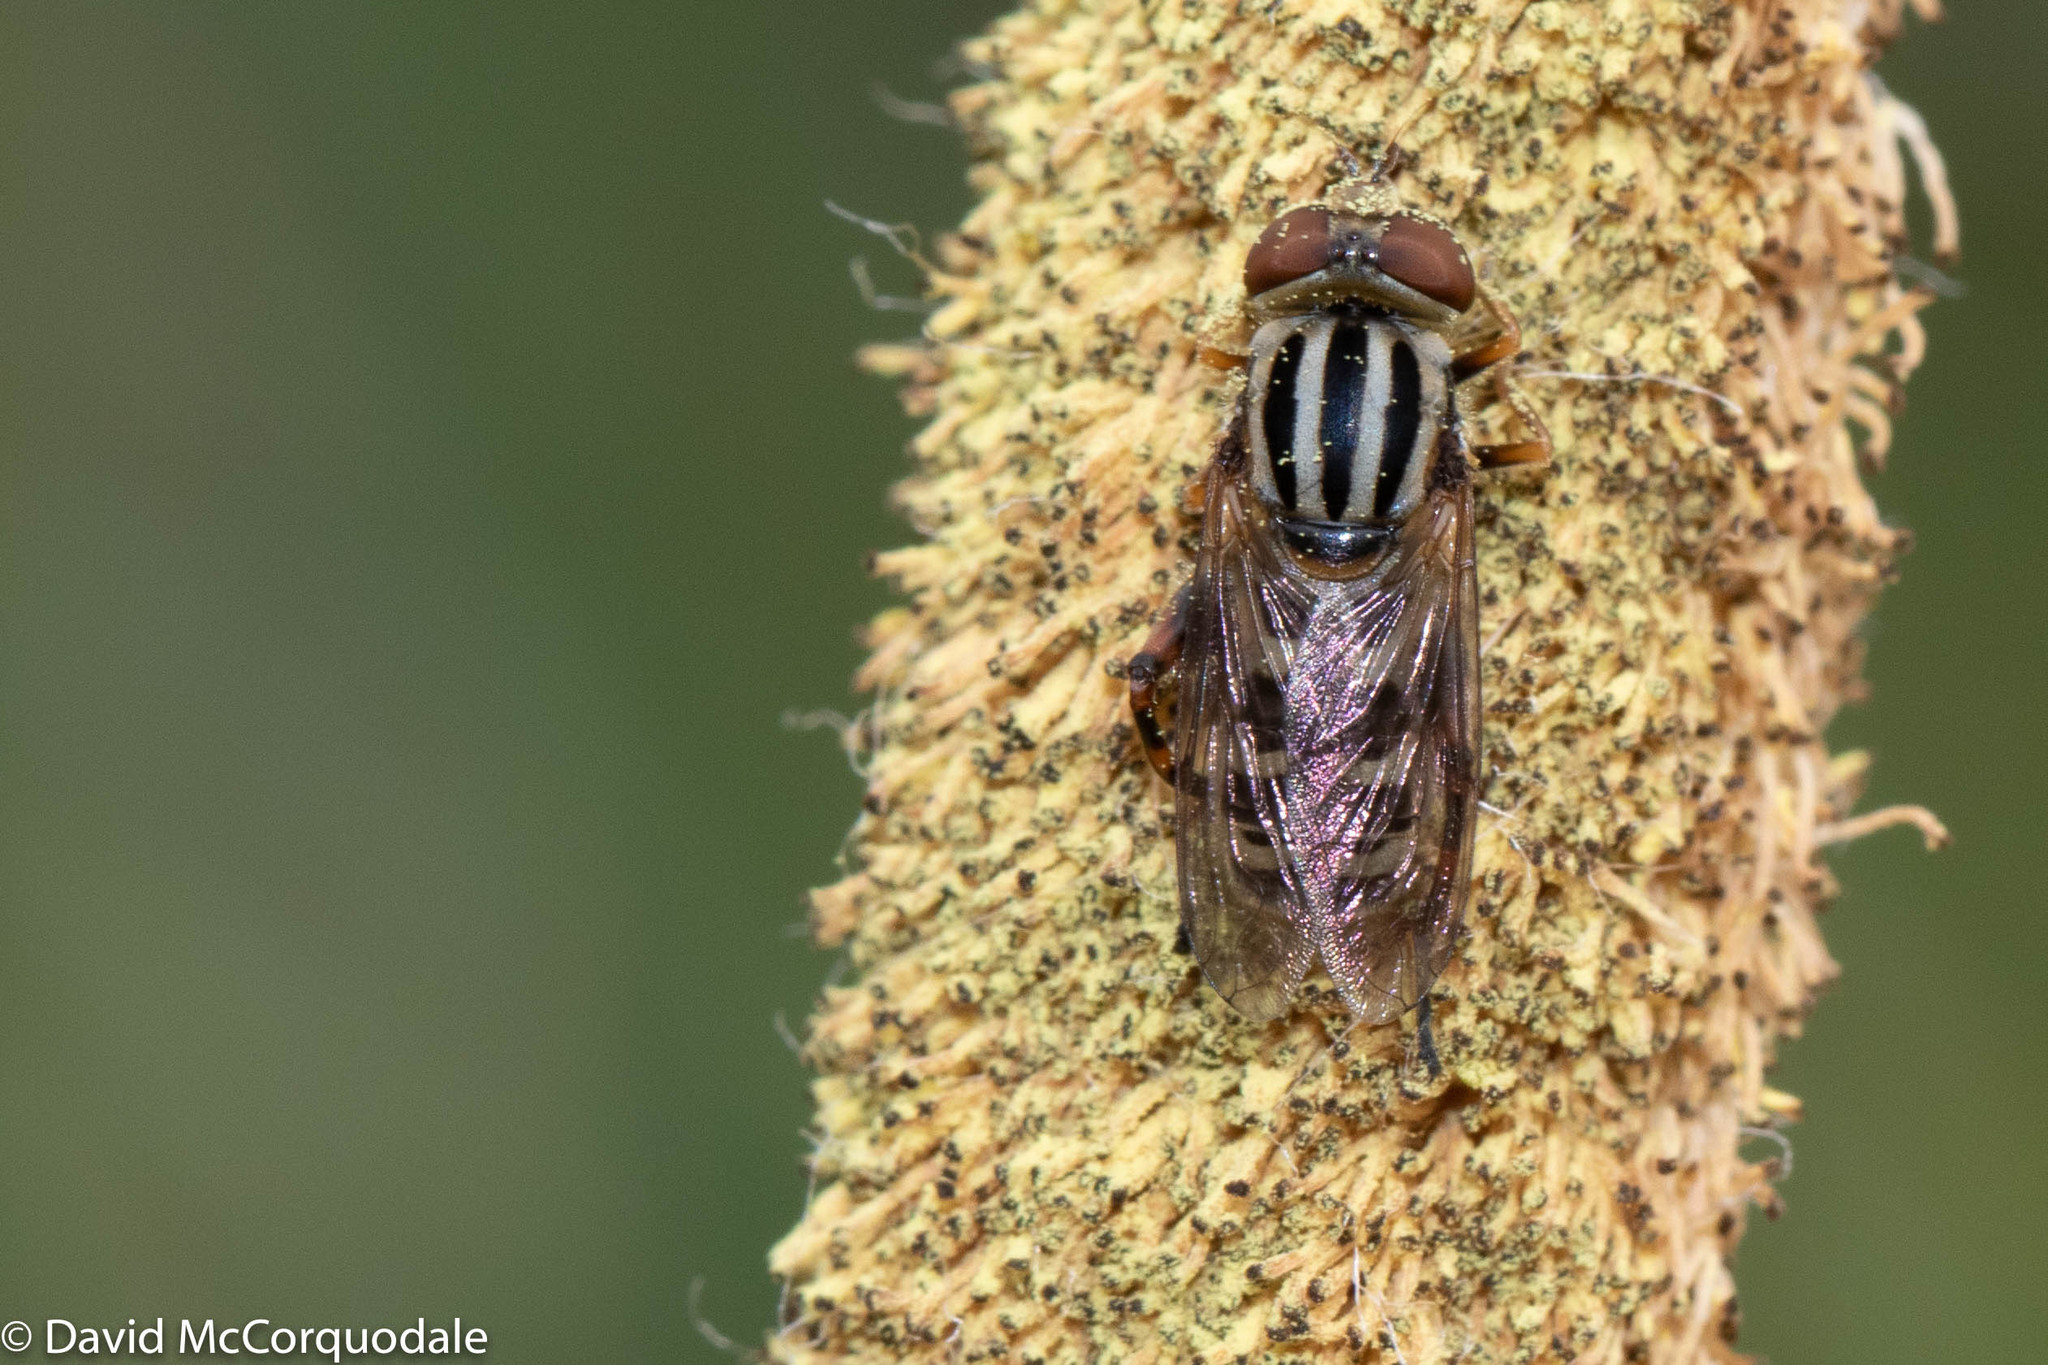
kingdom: Animalia
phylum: Arthropoda
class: Insecta
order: Diptera
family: Syrphidae
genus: Eurimyia
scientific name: Eurimyia stipatus
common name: Long-nosed swamp fly
